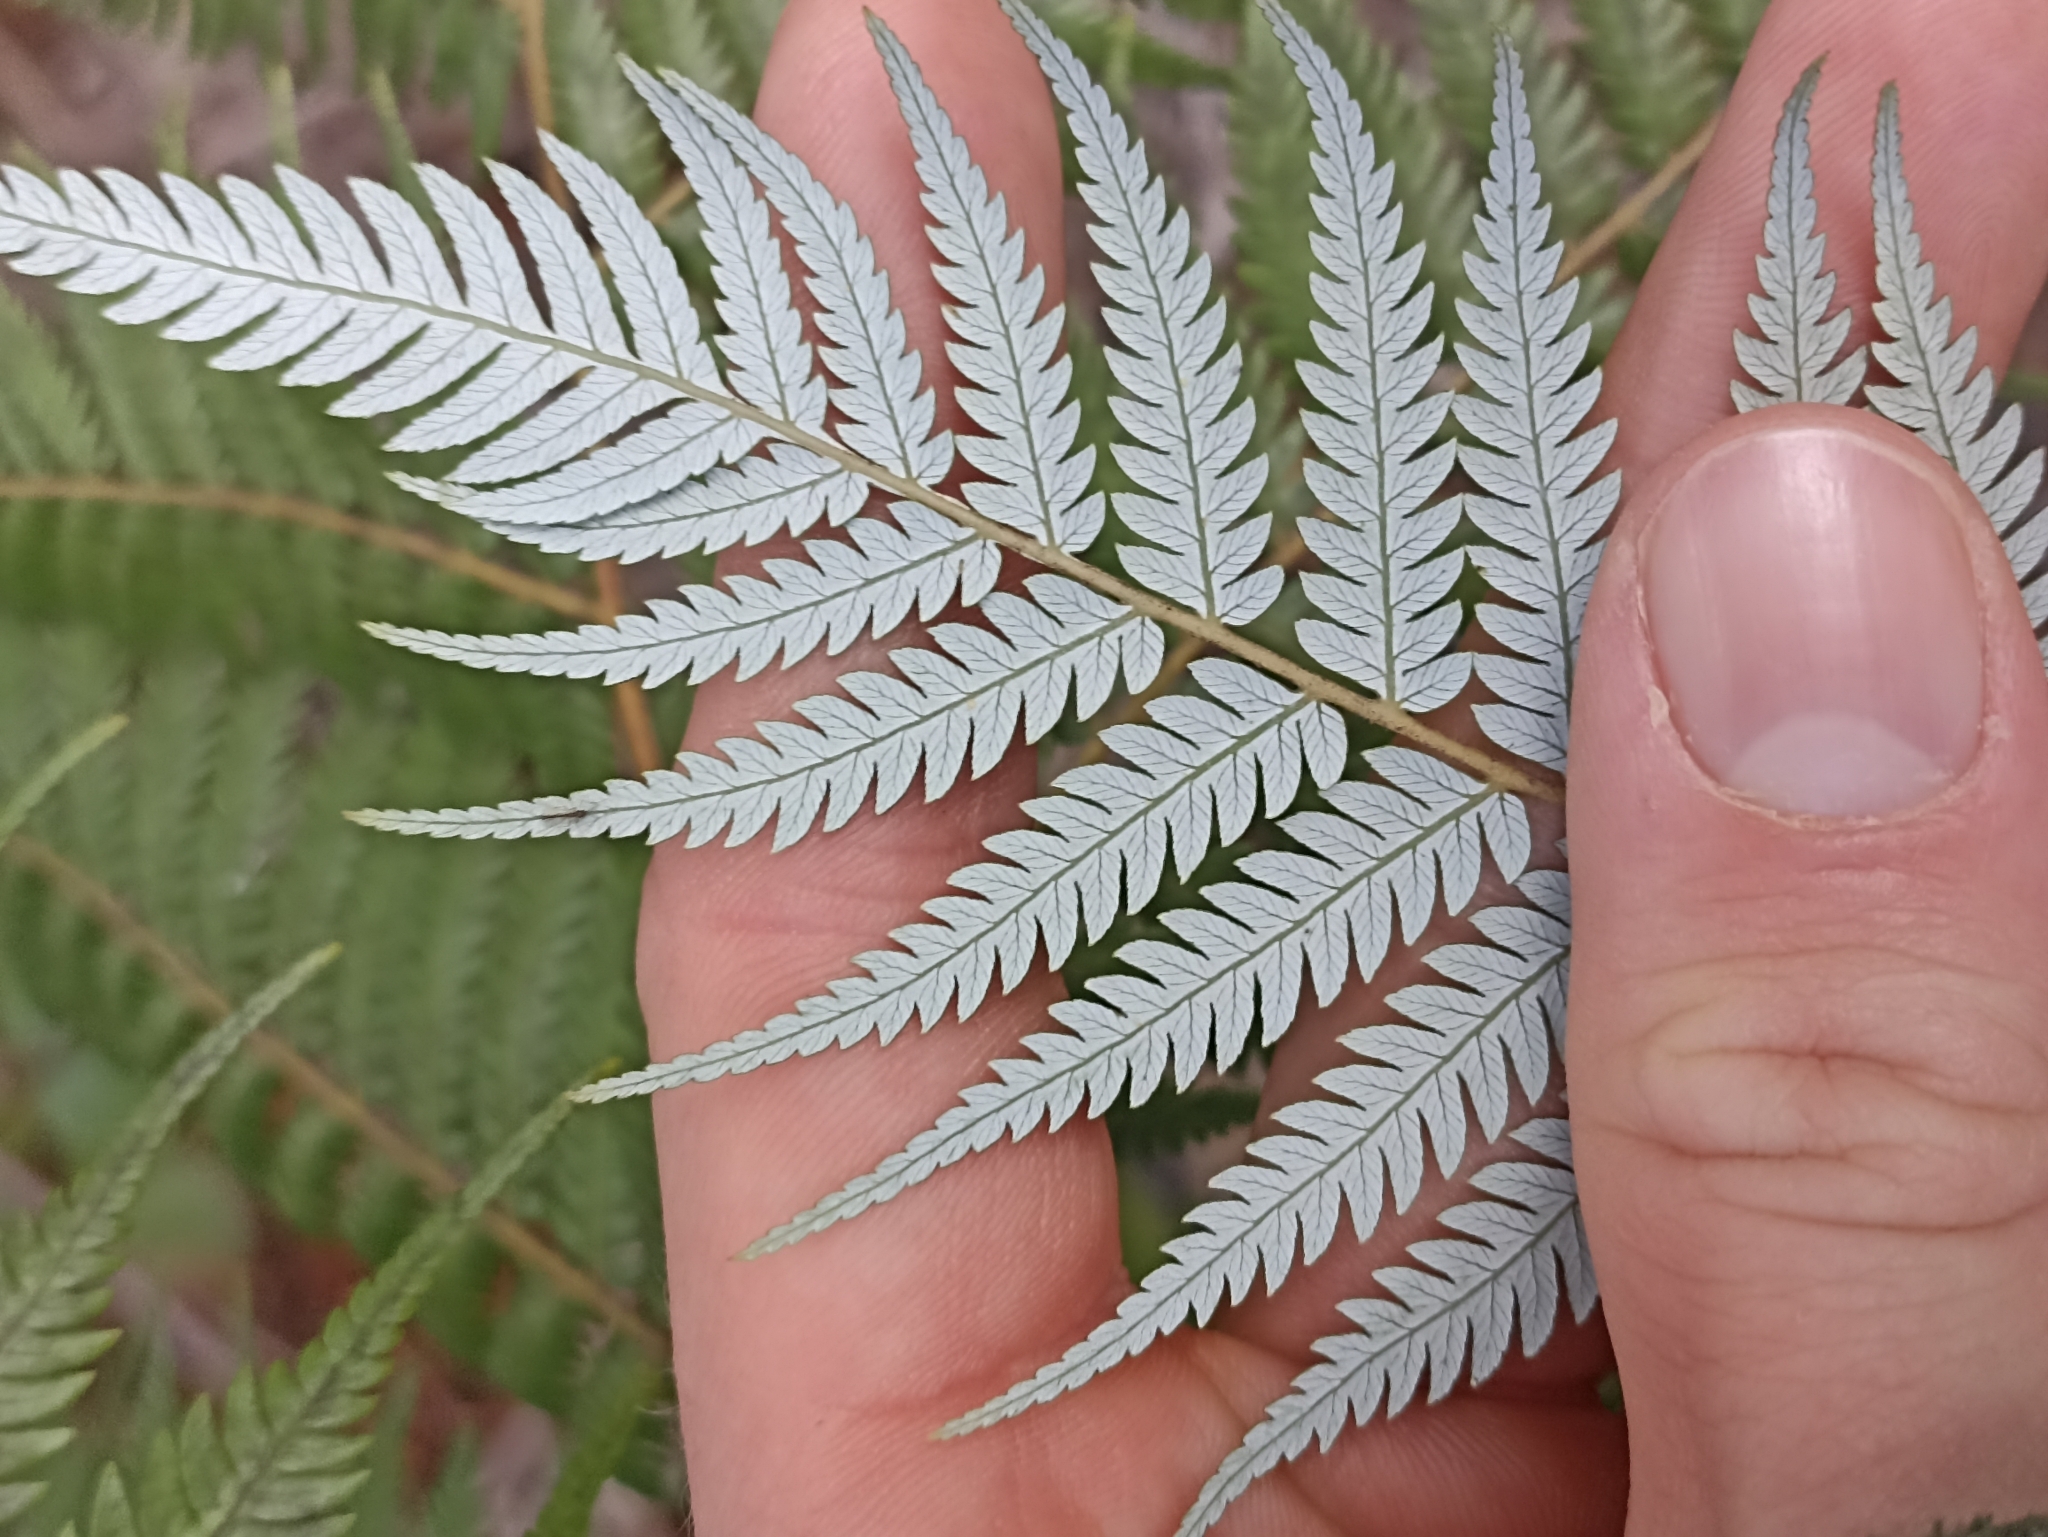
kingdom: Plantae
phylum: Tracheophyta
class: Polypodiopsida
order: Cyatheales
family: Cyatheaceae
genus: Alsophila
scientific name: Alsophila dealbata
